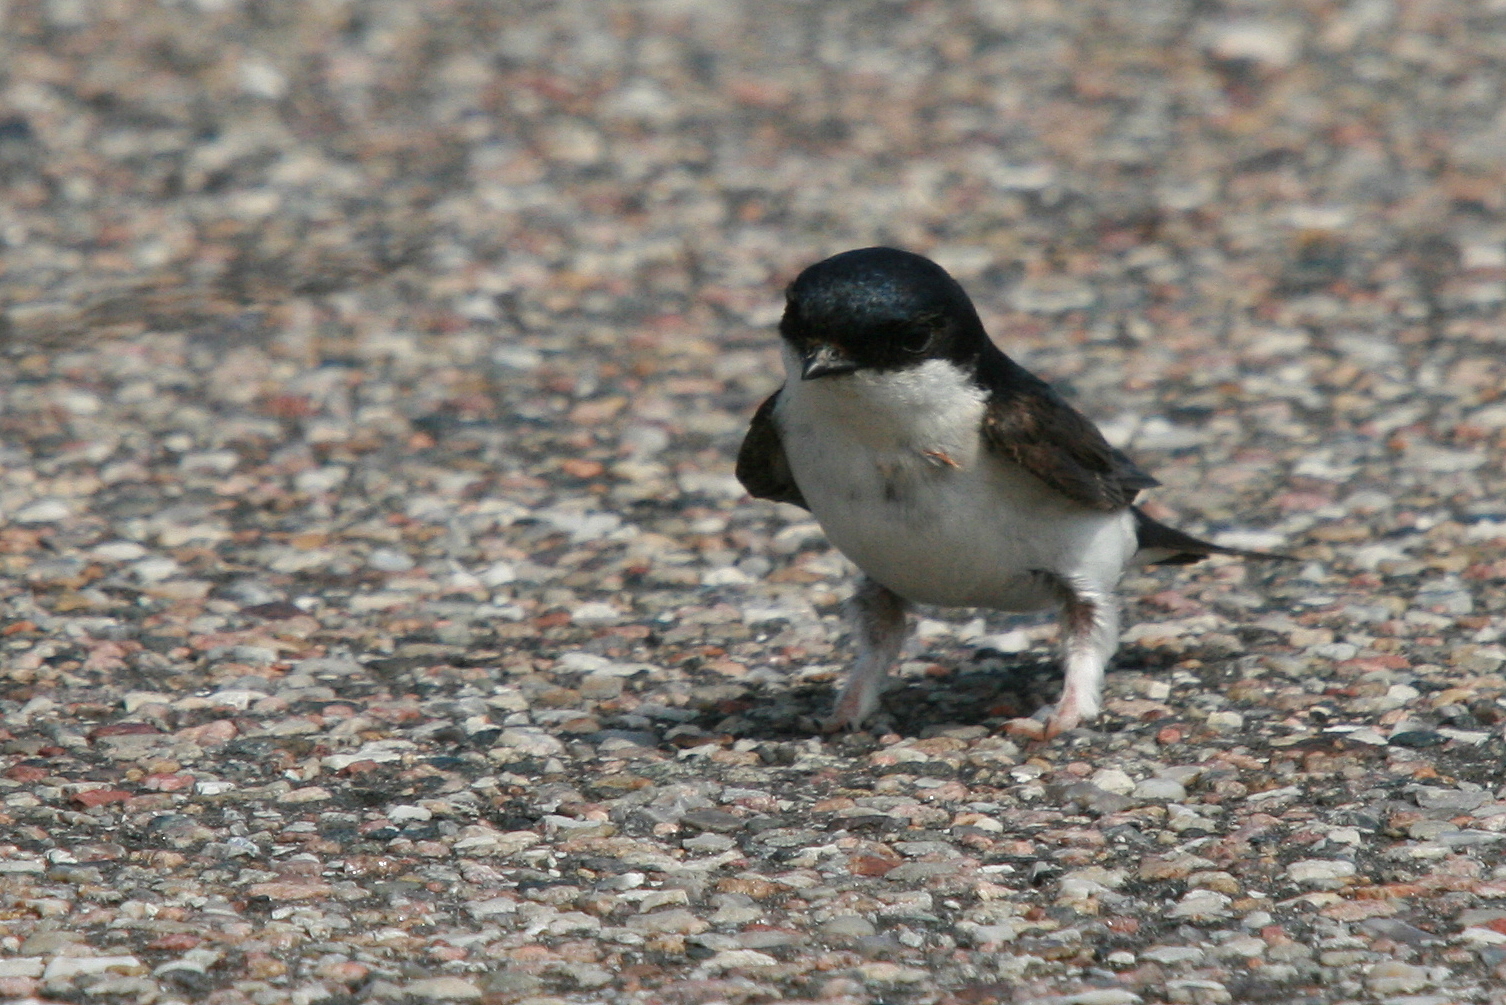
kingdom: Animalia
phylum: Chordata
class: Aves
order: Passeriformes
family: Hirundinidae
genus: Delichon
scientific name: Delichon urbicum
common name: Common house martin
